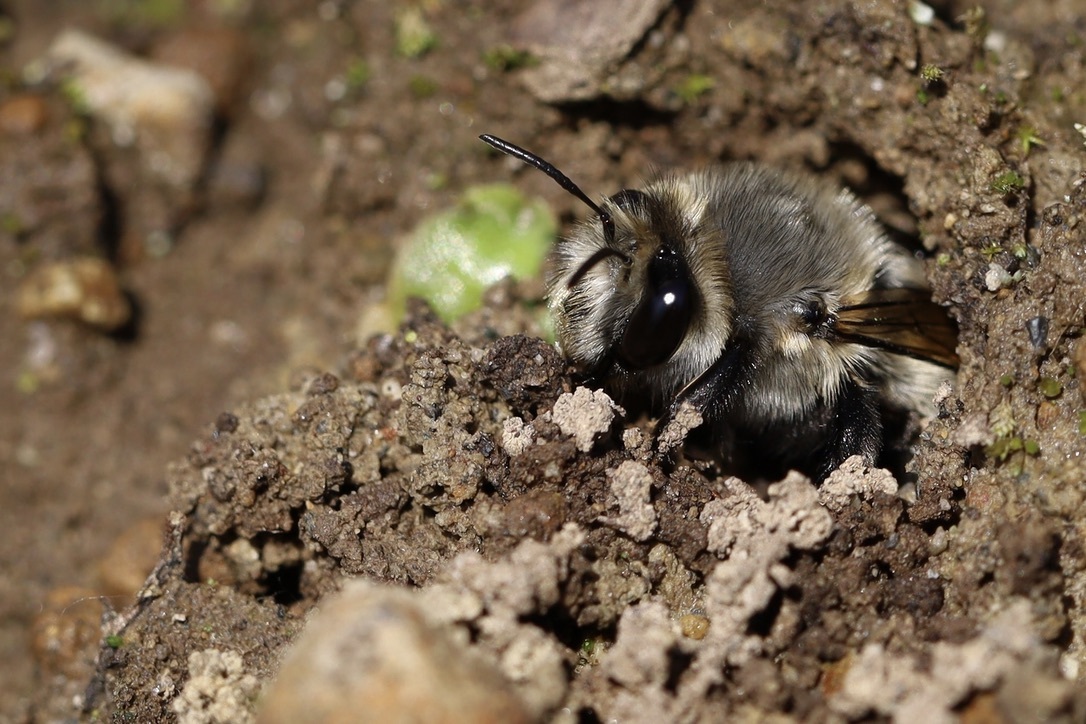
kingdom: Animalia
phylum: Arthropoda
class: Insecta
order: Hymenoptera
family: Apidae
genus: Anthophora
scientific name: Anthophora pacifica
